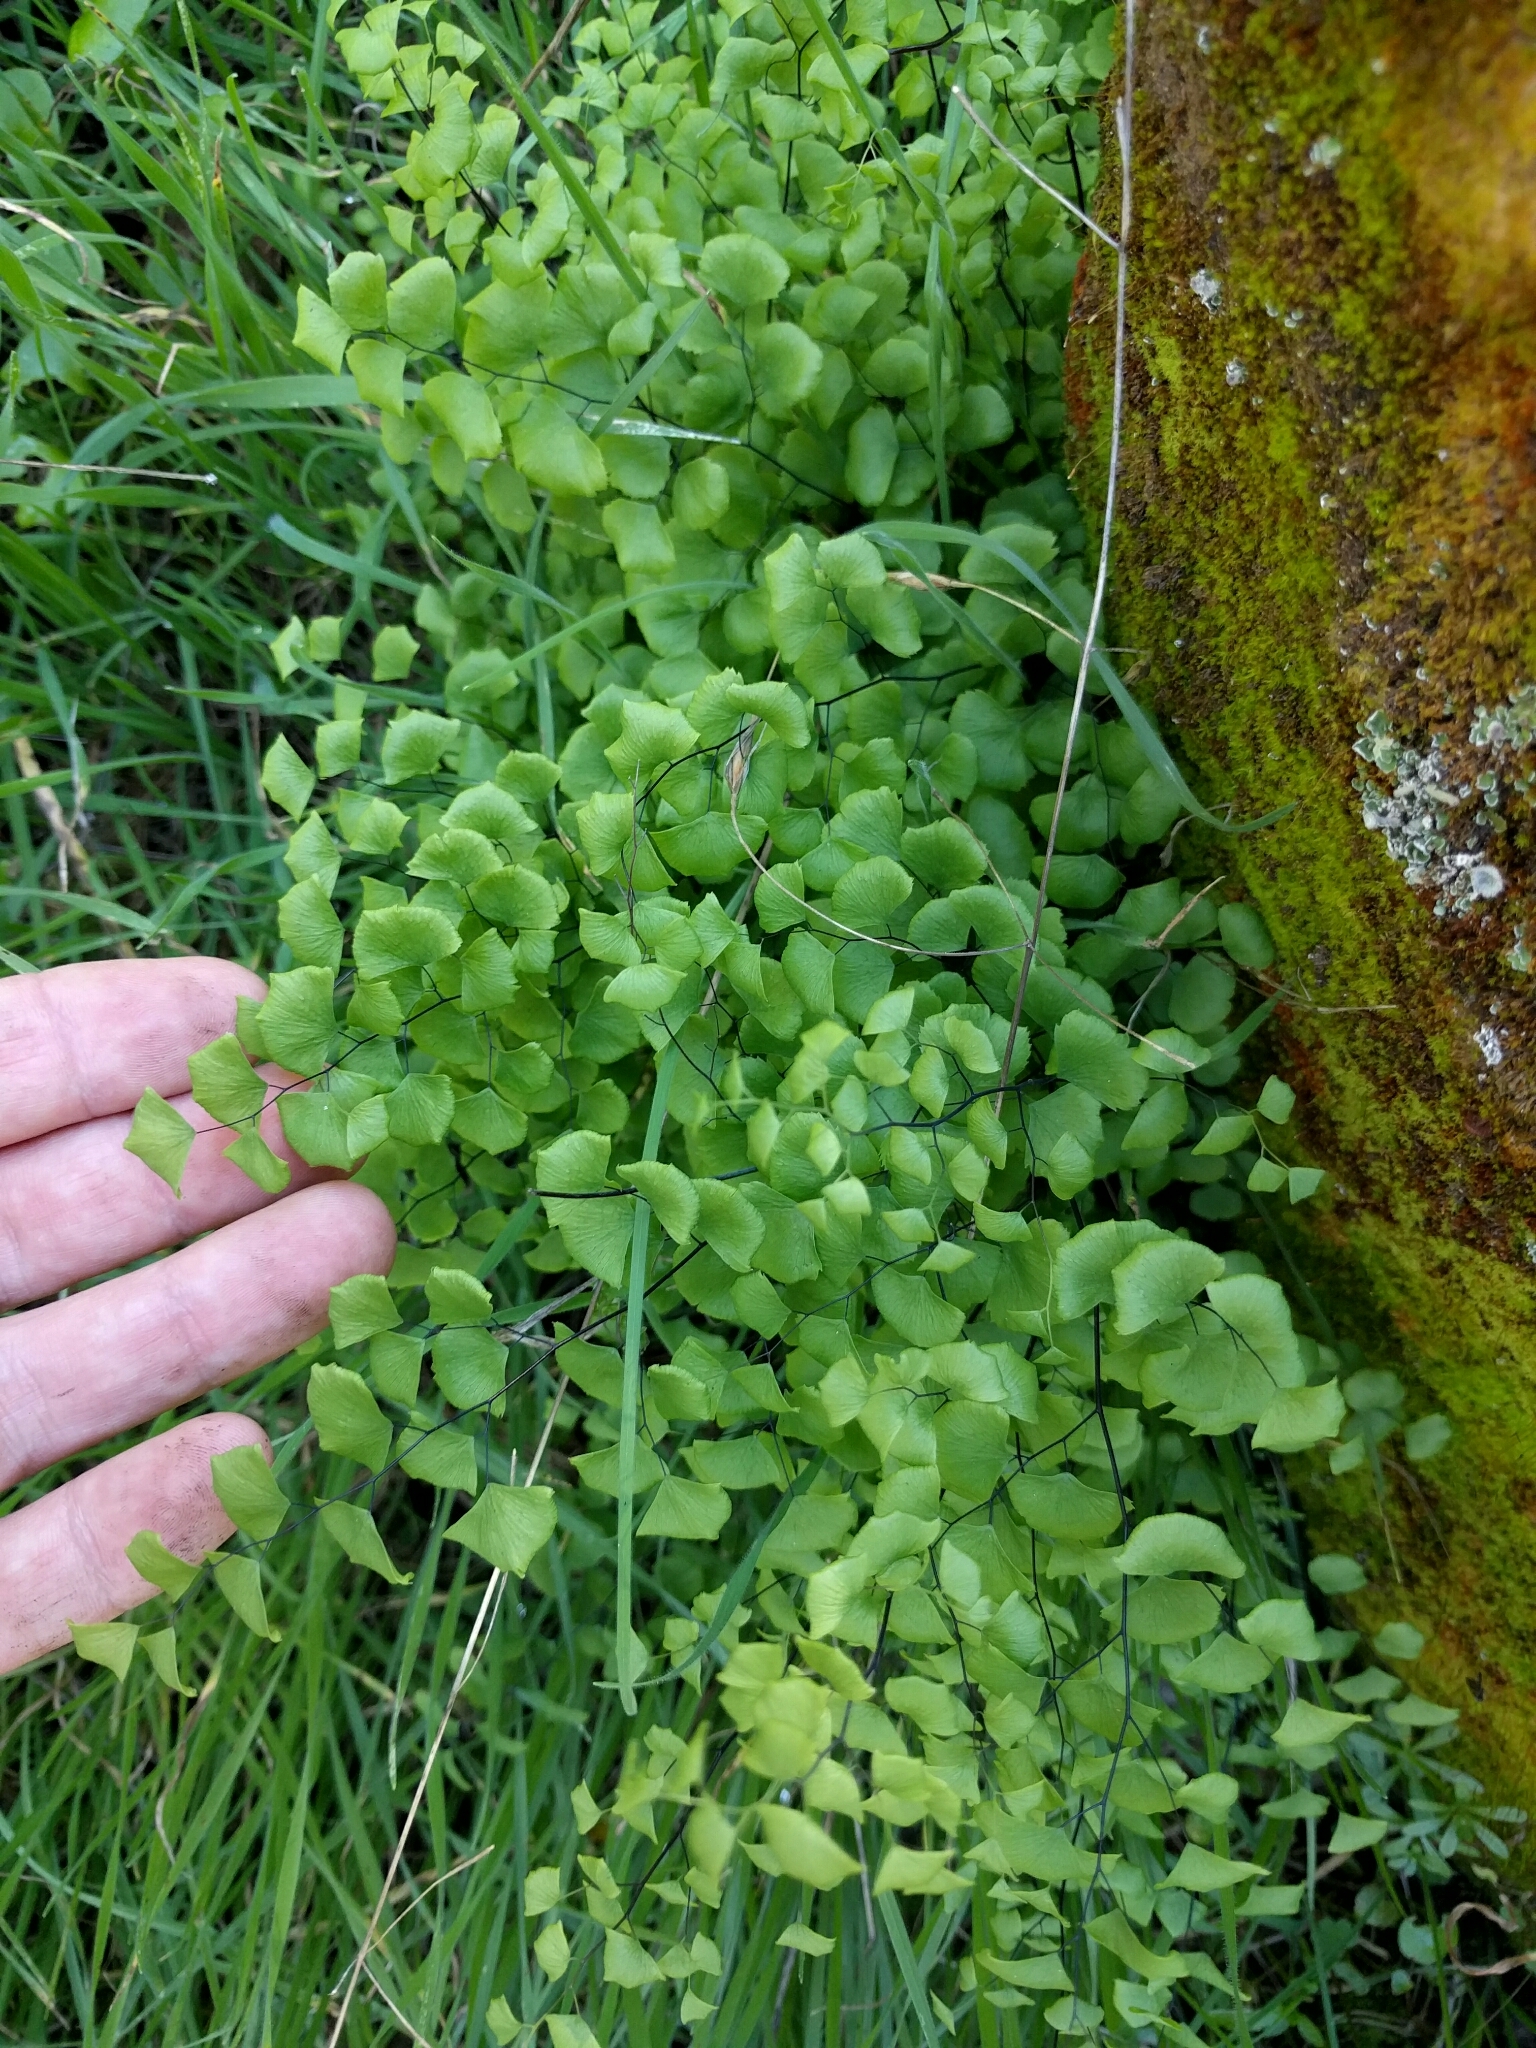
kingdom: Plantae
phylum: Tracheophyta
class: Polypodiopsida
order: Polypodiales
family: Pteridaceae
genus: Adiantum
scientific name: Adiantum jordanii
